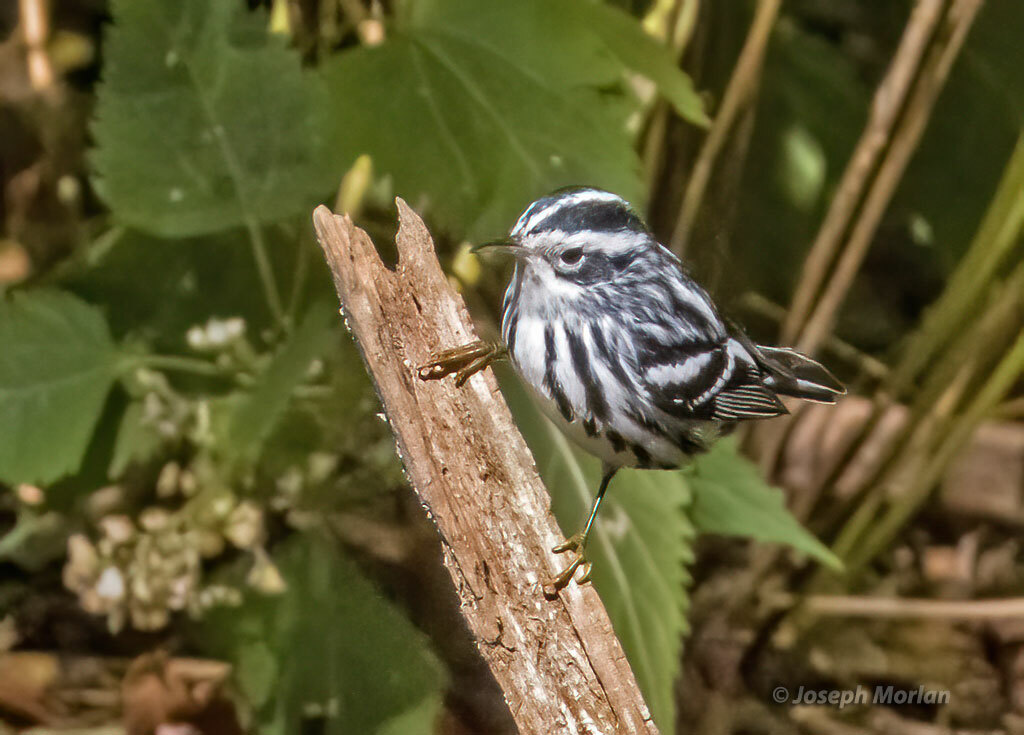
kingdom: Animalia
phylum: Chordata
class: Aves
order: Passeriformes
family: Parulidae
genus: Mniotilta
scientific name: Mniotilta varia
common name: Black-and-white warbler
